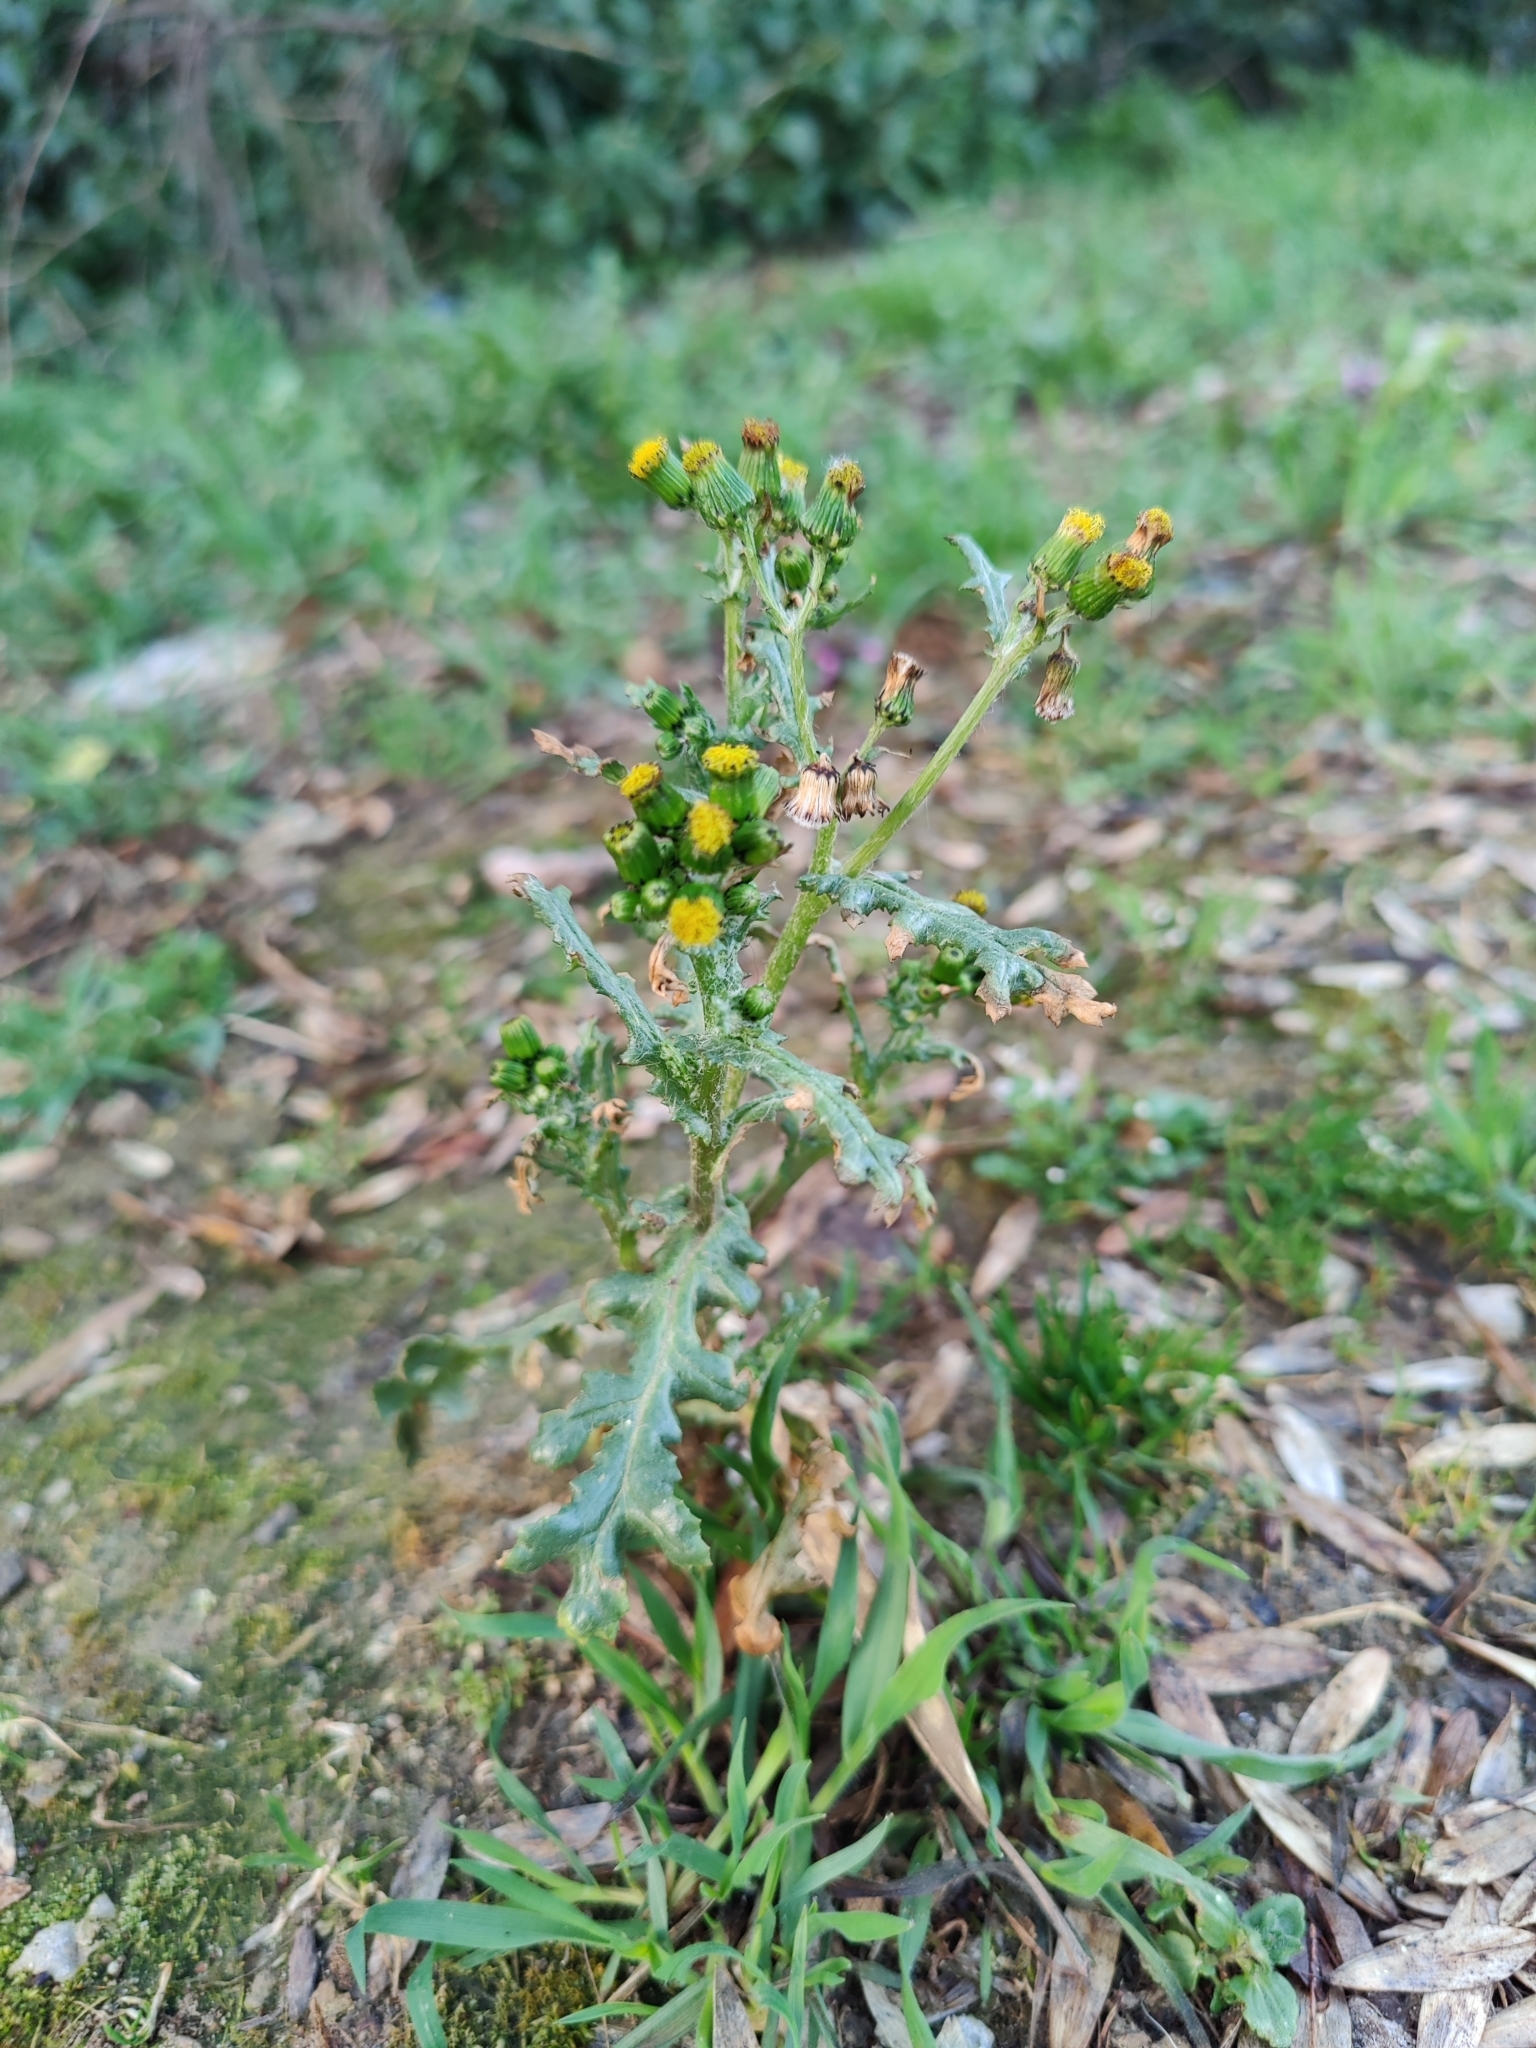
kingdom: Plantae
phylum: Tracheophyta
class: Magnoliopsida
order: Asterales
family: Asteraceae
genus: Senecio
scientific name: Senecio vulgaris
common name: Old-man-in-the-spring
